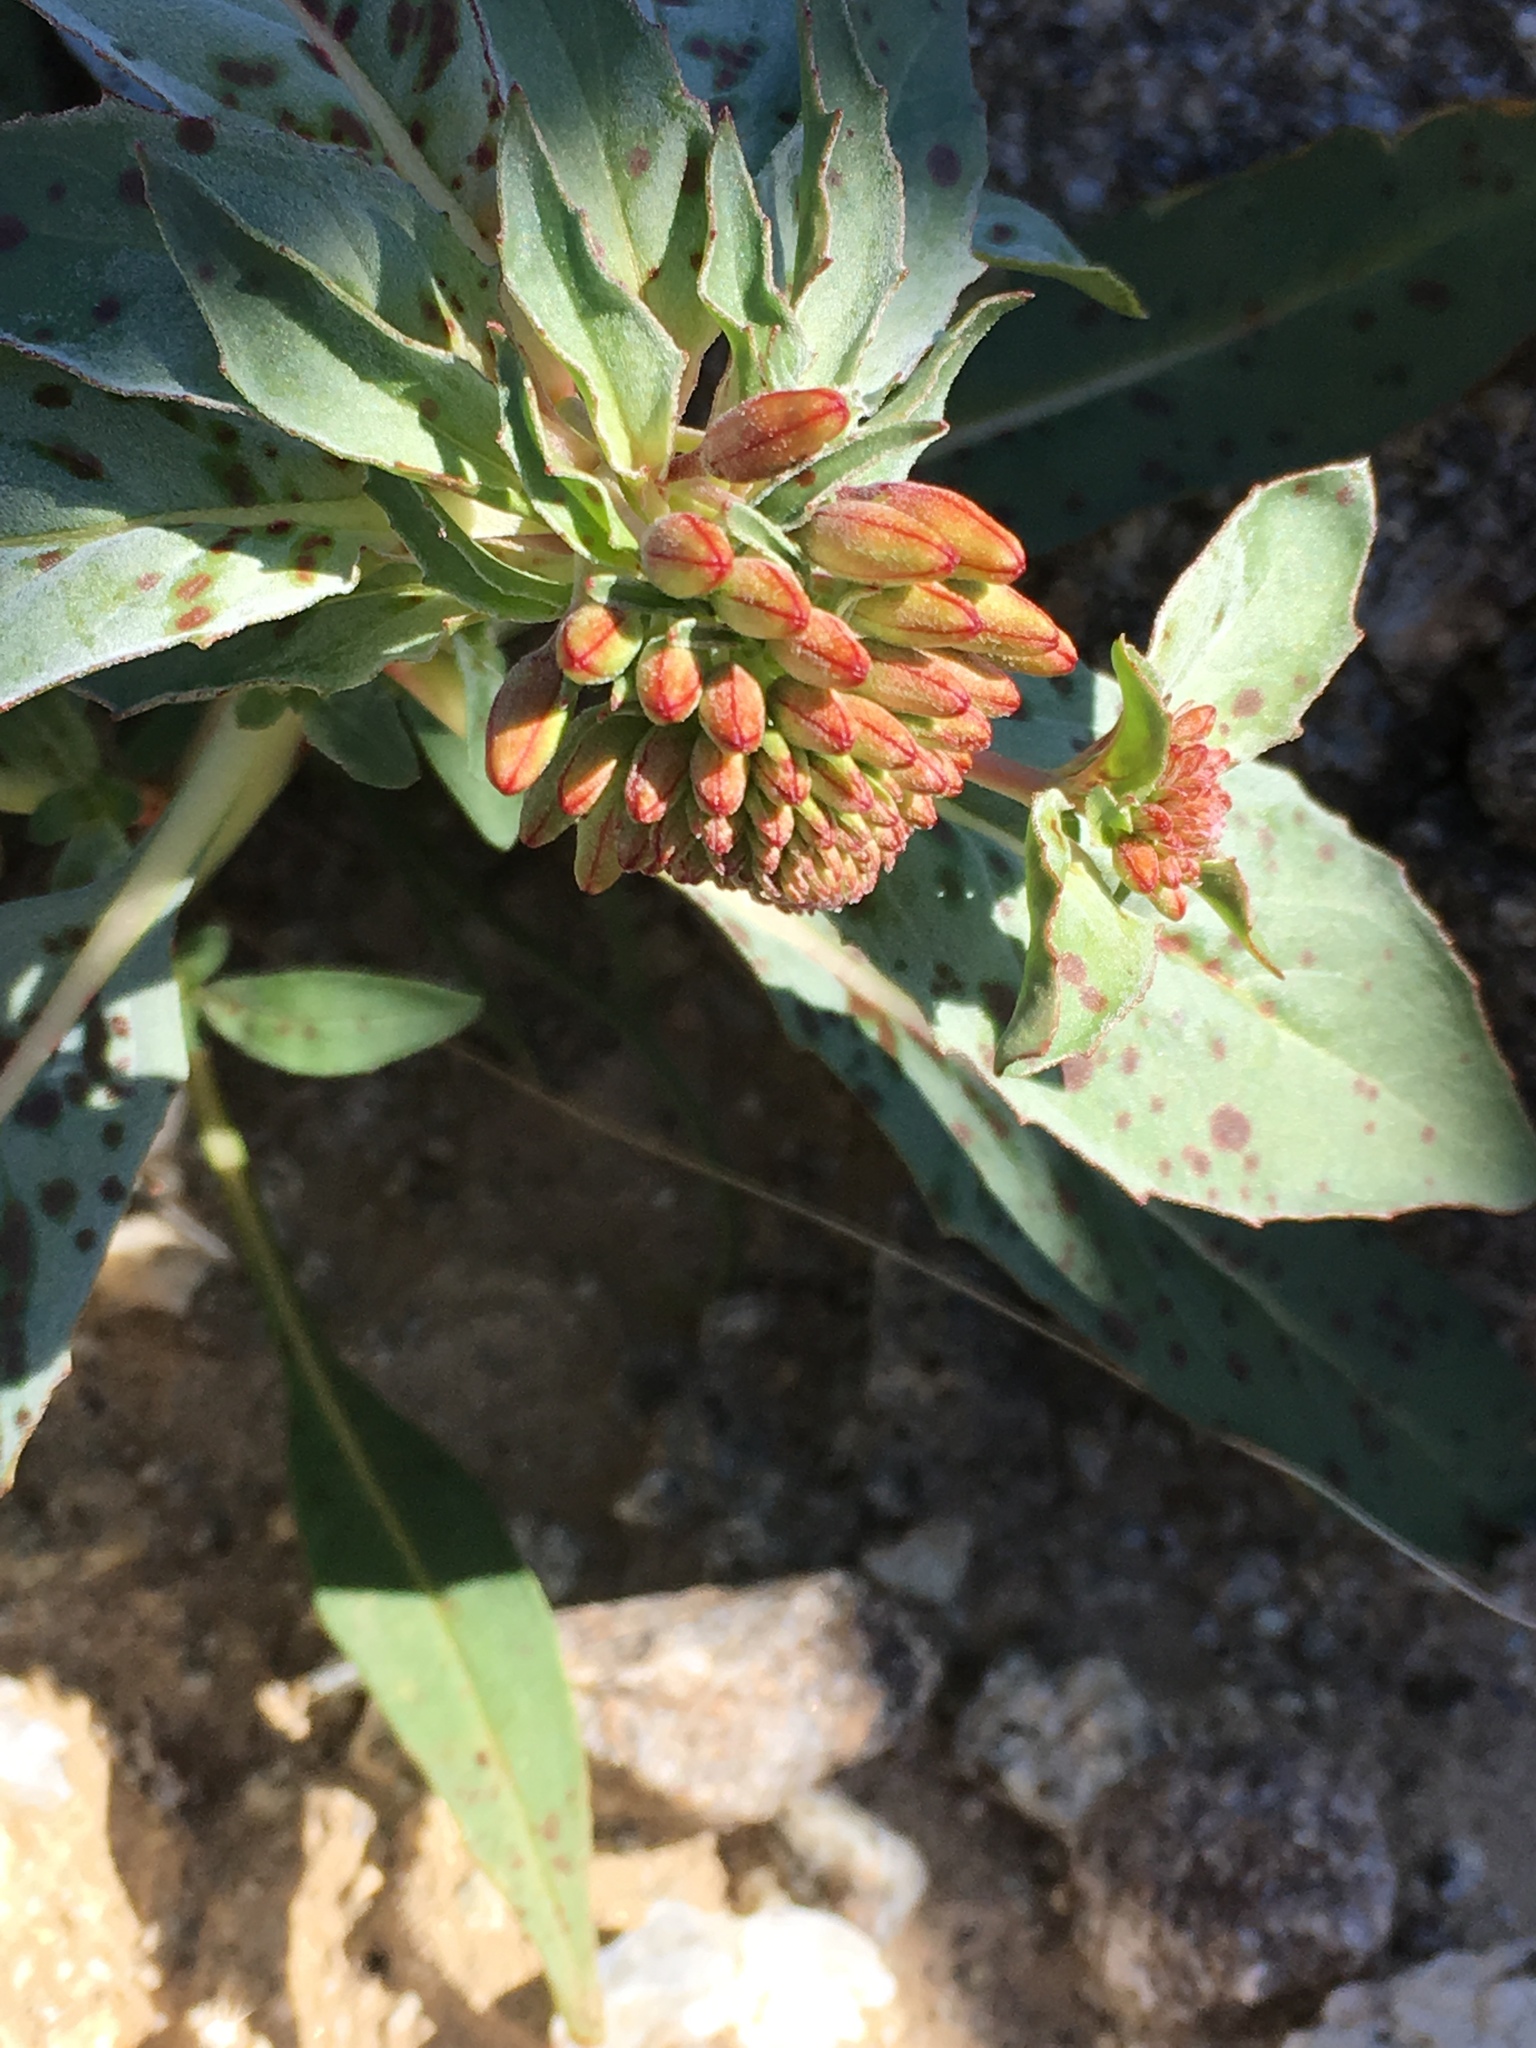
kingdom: Plantae
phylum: Tracheophyta
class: Magnoliopsida
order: Myrtales
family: Onagraceae
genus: Eremothera
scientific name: Eremothera boothii
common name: Booth's evening primrose
